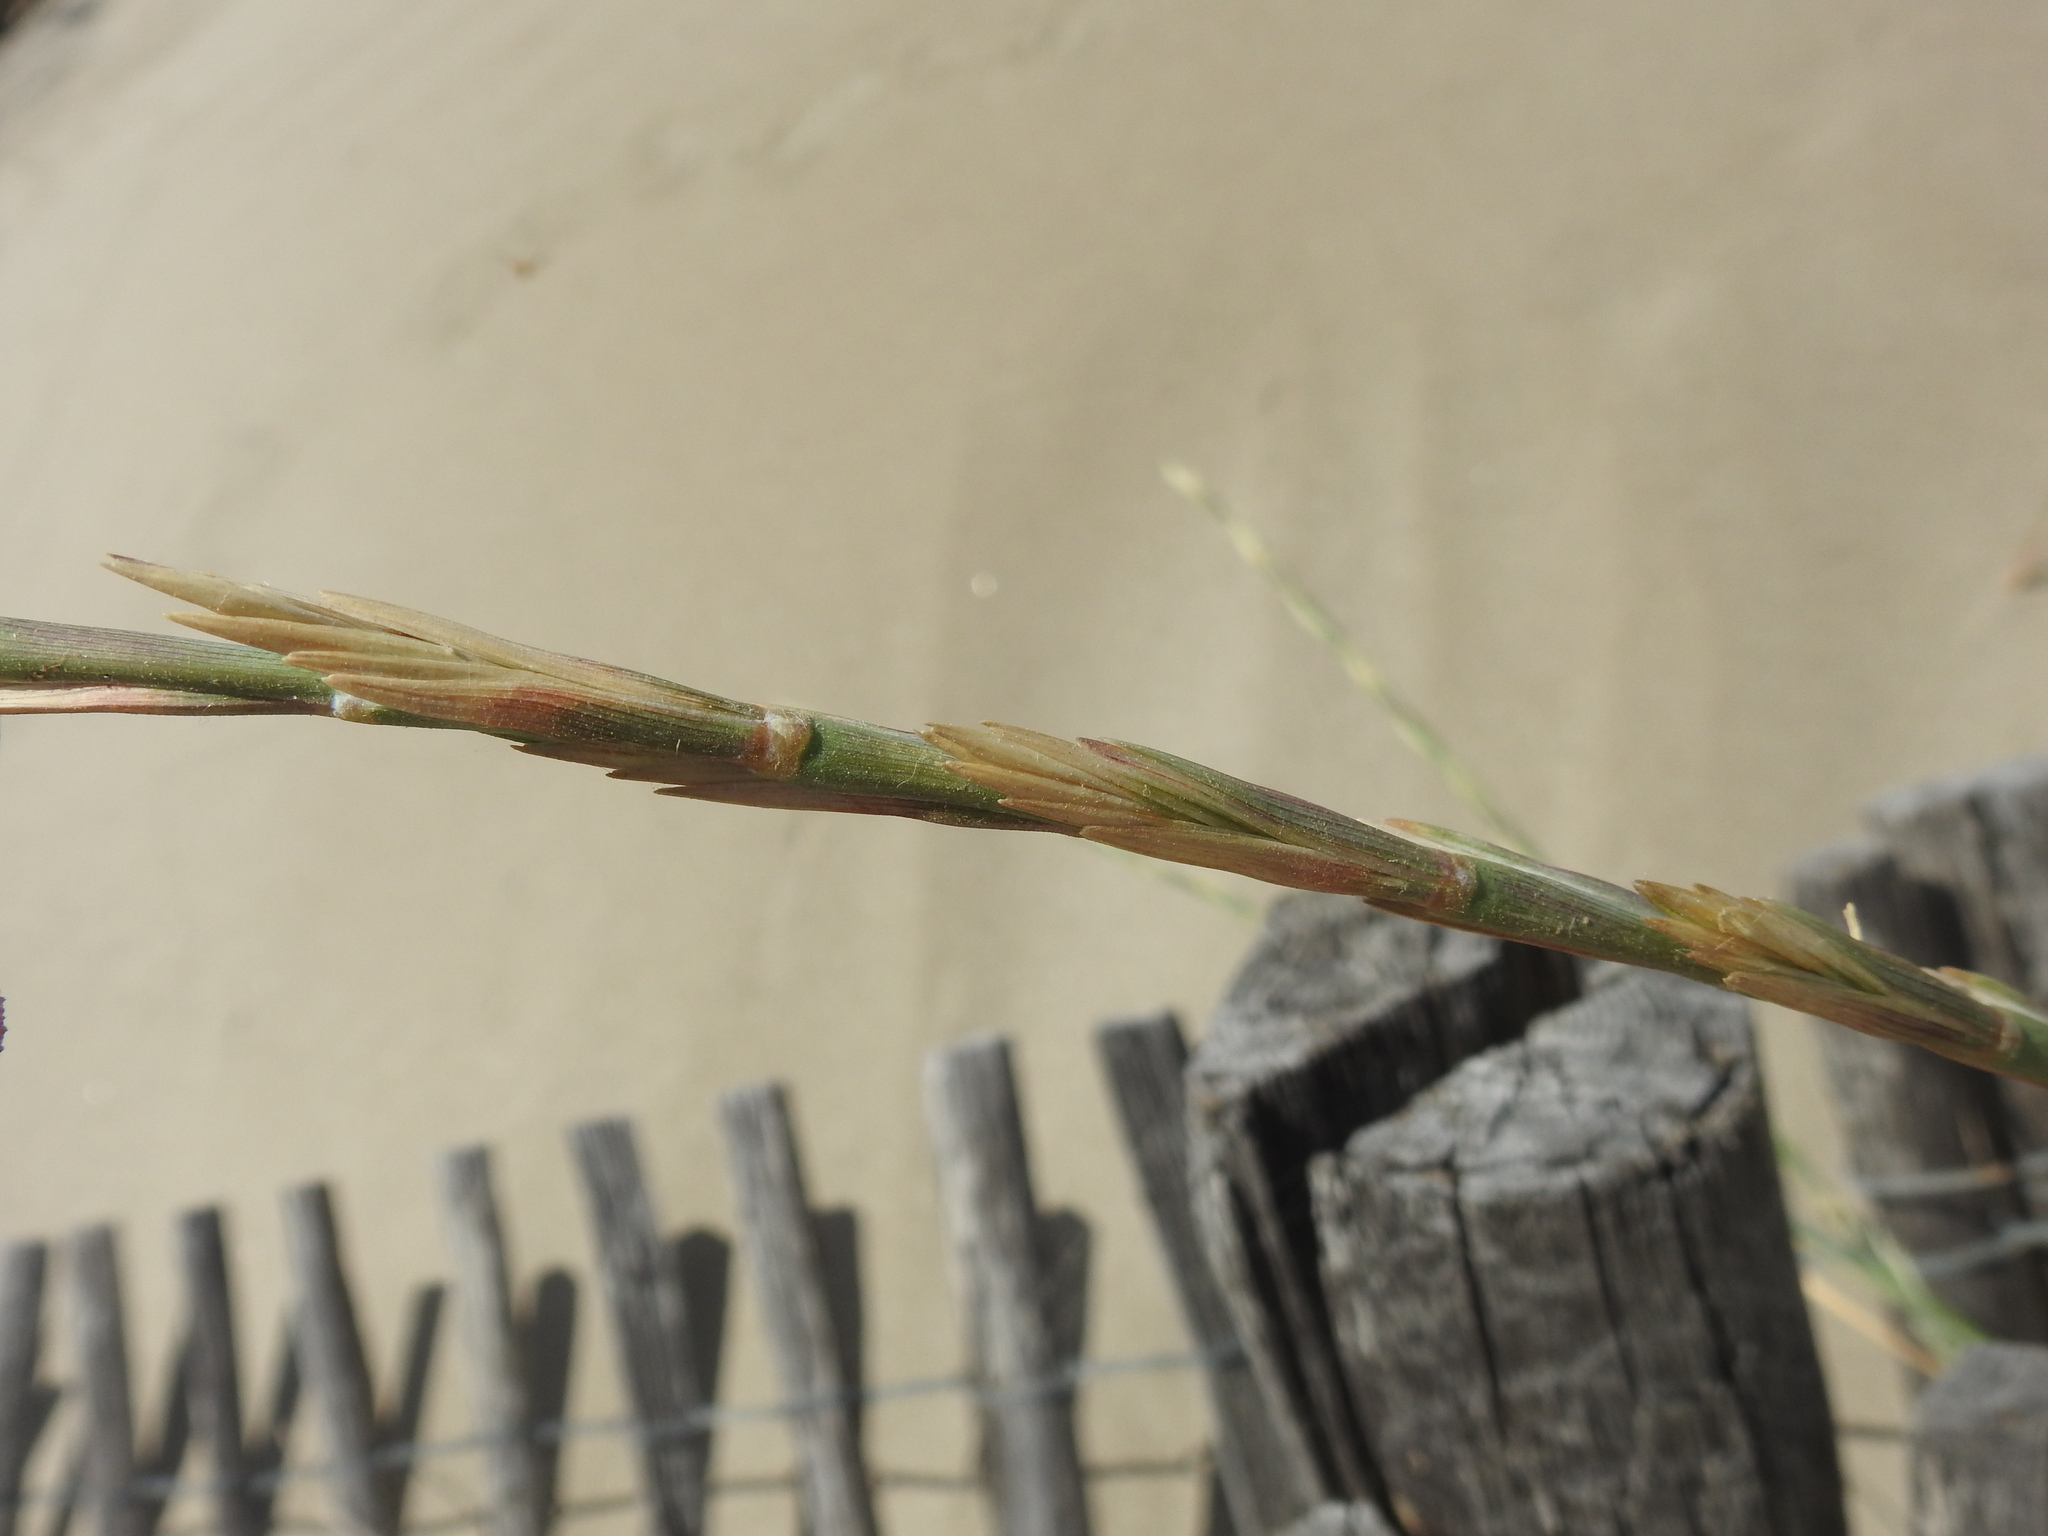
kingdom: Plantae
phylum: Tracheophyta
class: Liliopsida
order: Poales
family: Poaceae
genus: Thinopyrum
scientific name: Thinopyrum junceum
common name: Russian wheatgrass
